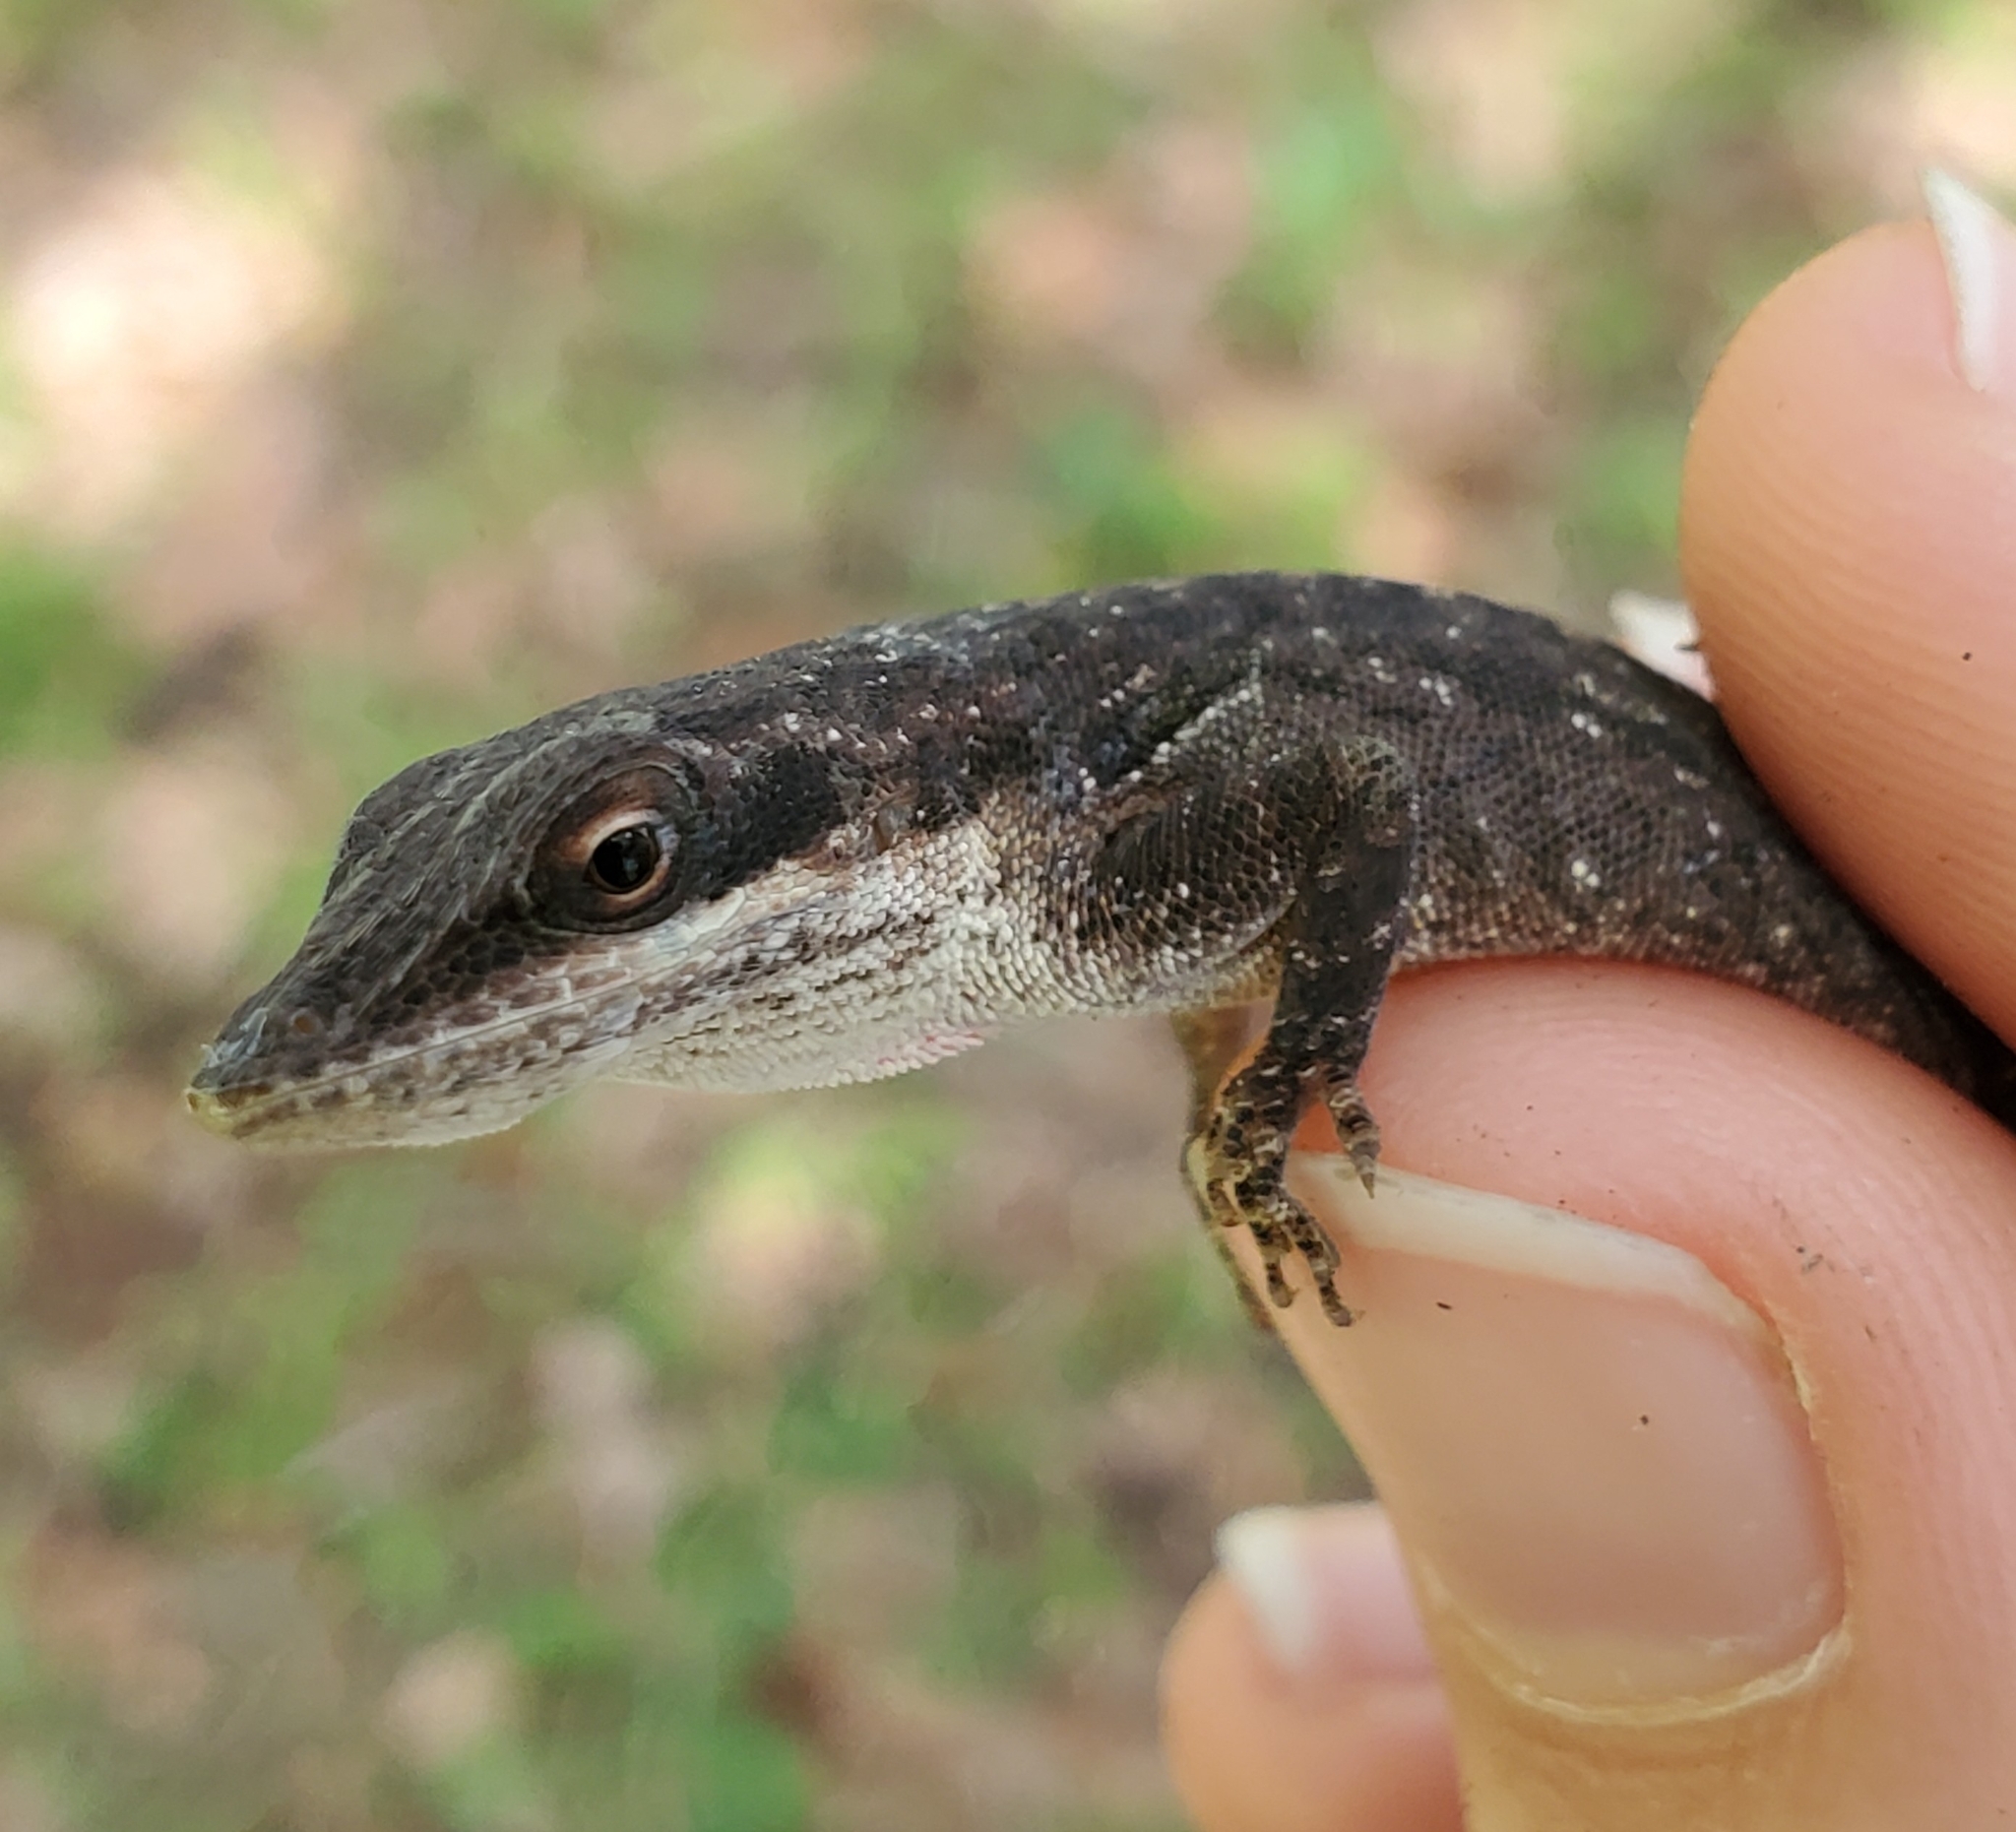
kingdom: Animalia
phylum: Chordata
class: Squamata
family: Dactyloidae
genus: Anolis
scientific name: Anolis carolinensis
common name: Green anole
